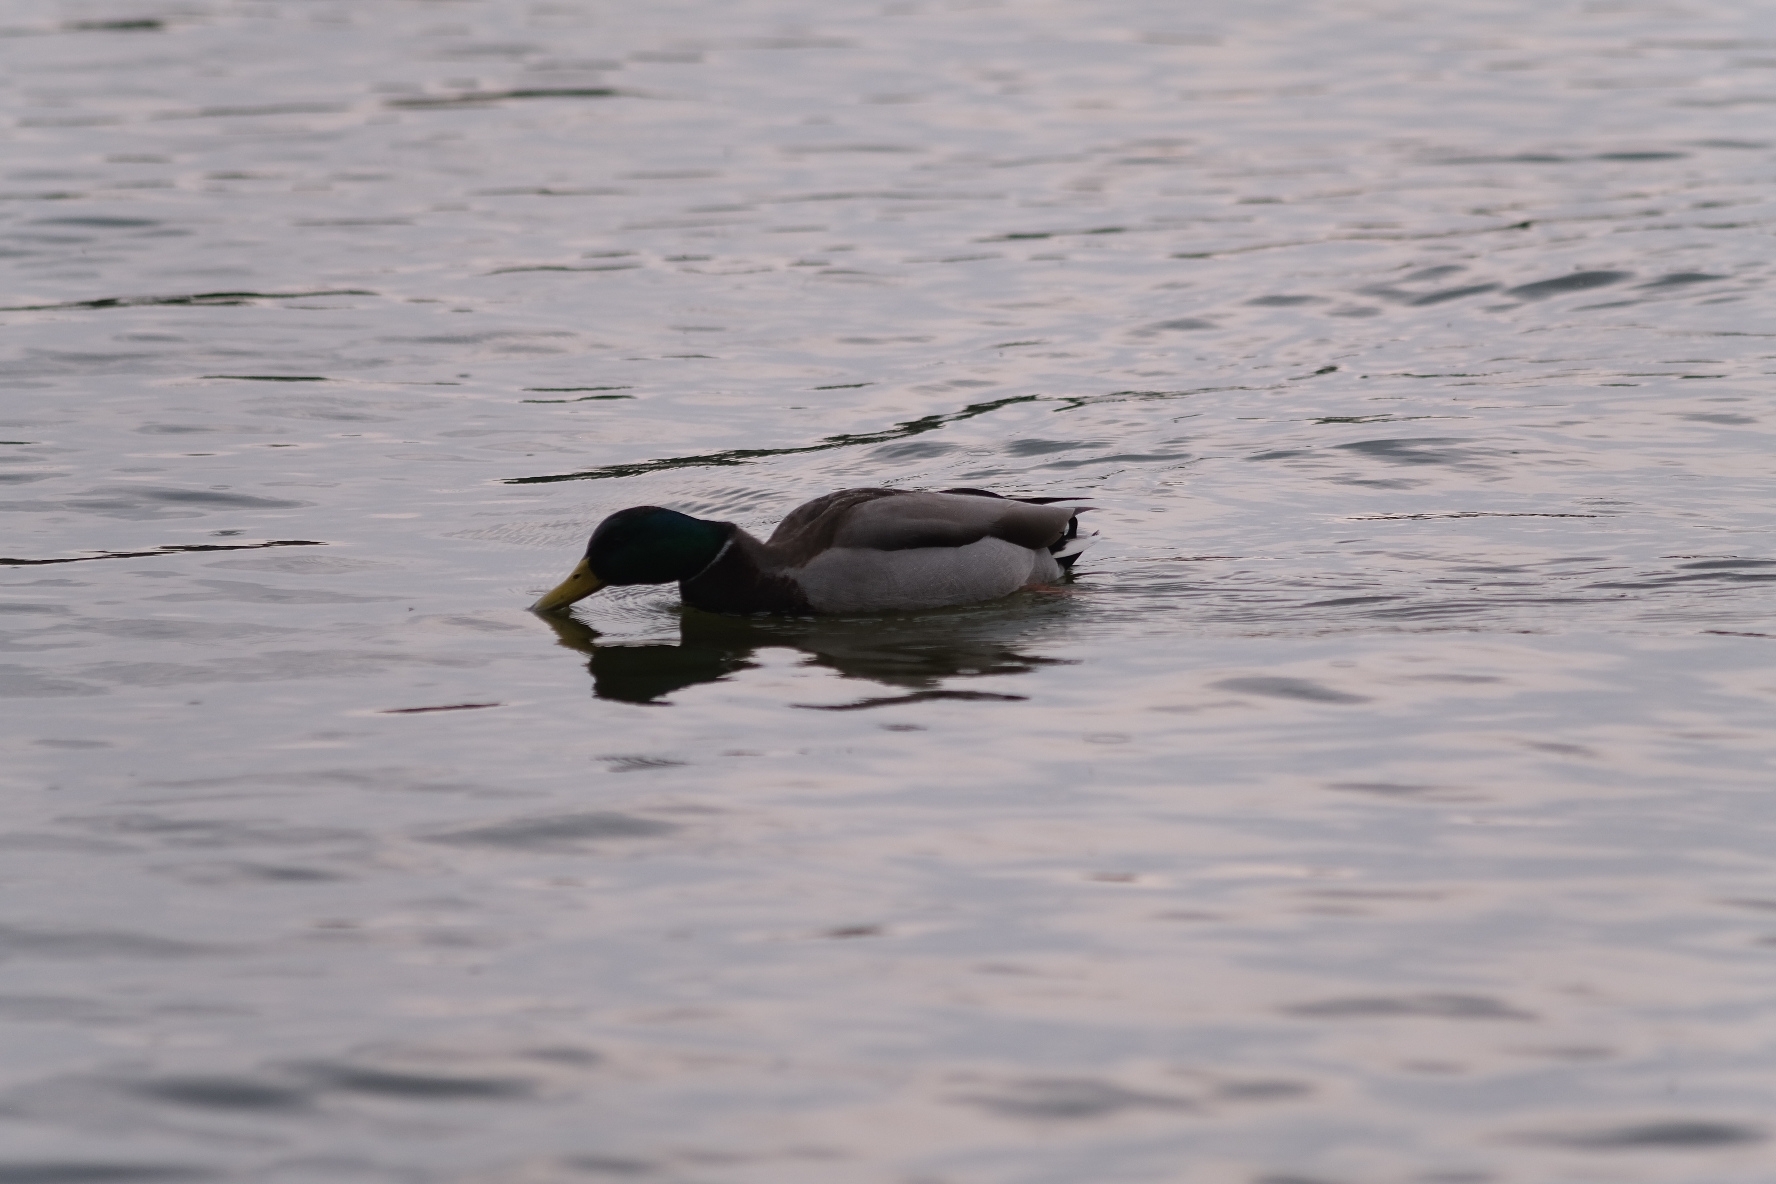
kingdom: Animalia
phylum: Chordata
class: Aves
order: Anseriformes
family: Anatidae
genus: Anas
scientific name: Anas platyrhynchos
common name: Mallard
